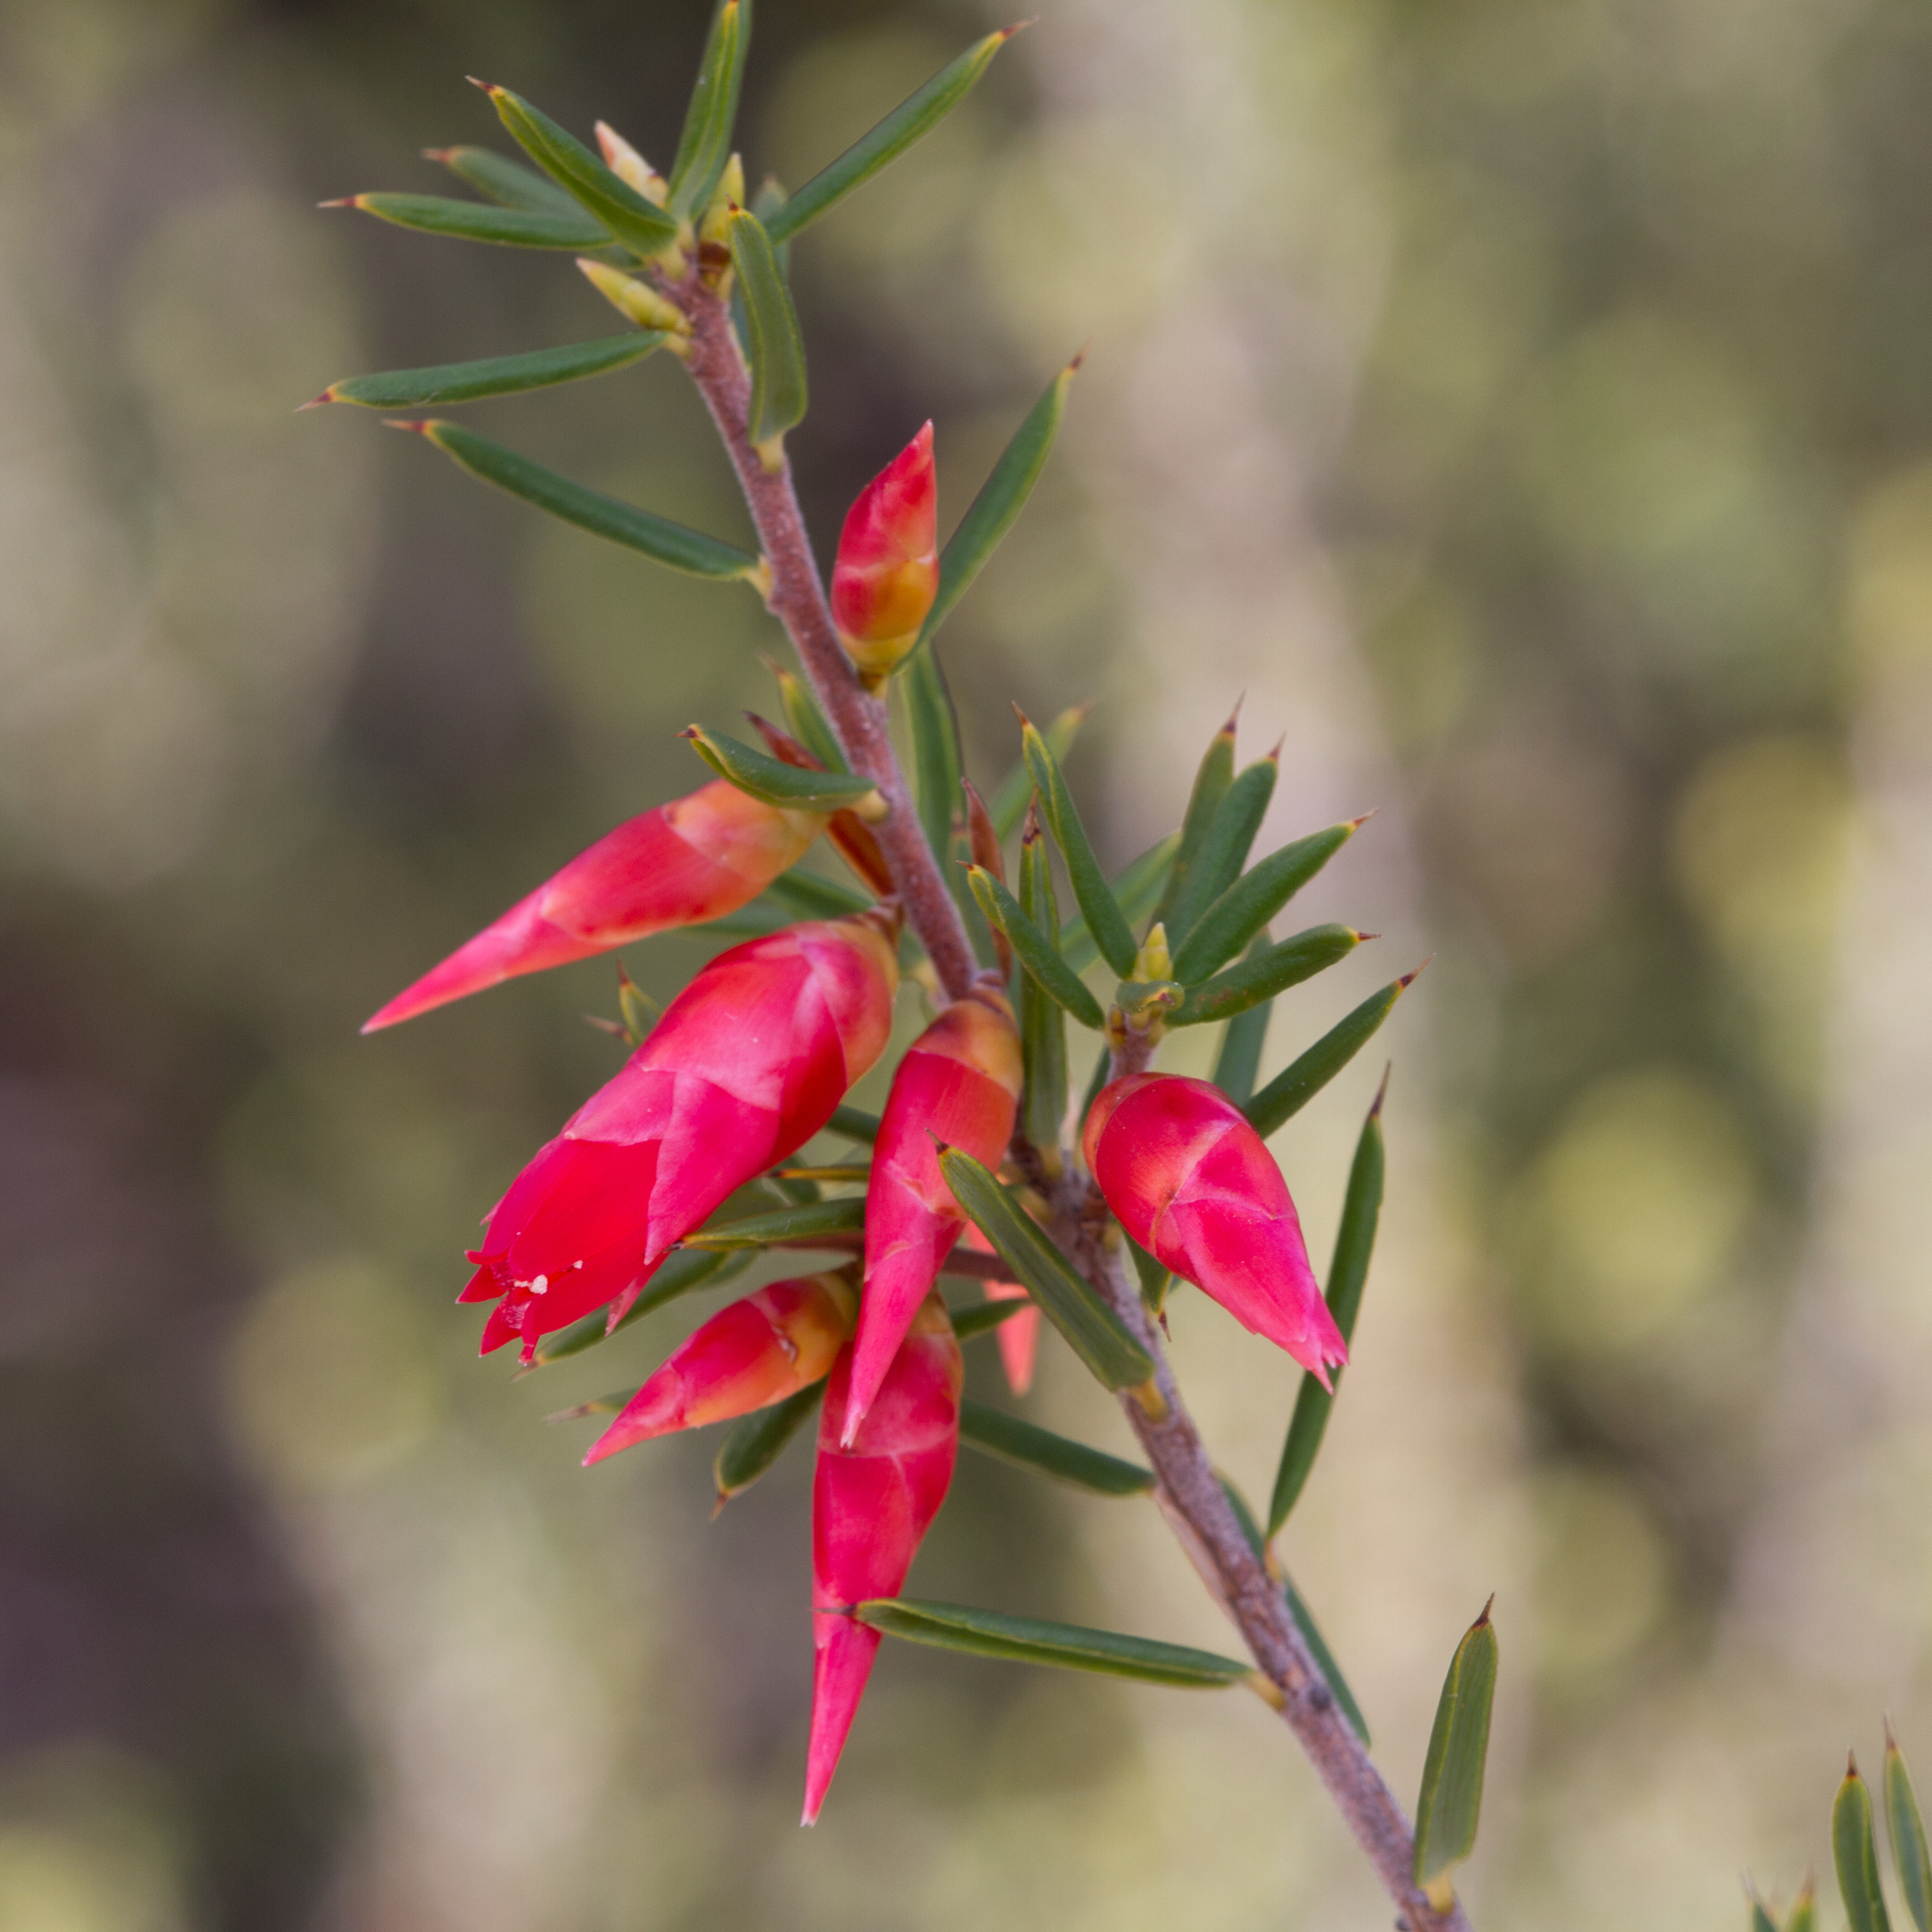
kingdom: Plantae
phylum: Tracheophyta
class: Magnoliopsida
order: Ericales
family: Ericaceae
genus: Stenanthera
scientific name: Stenanthera conostephioides
